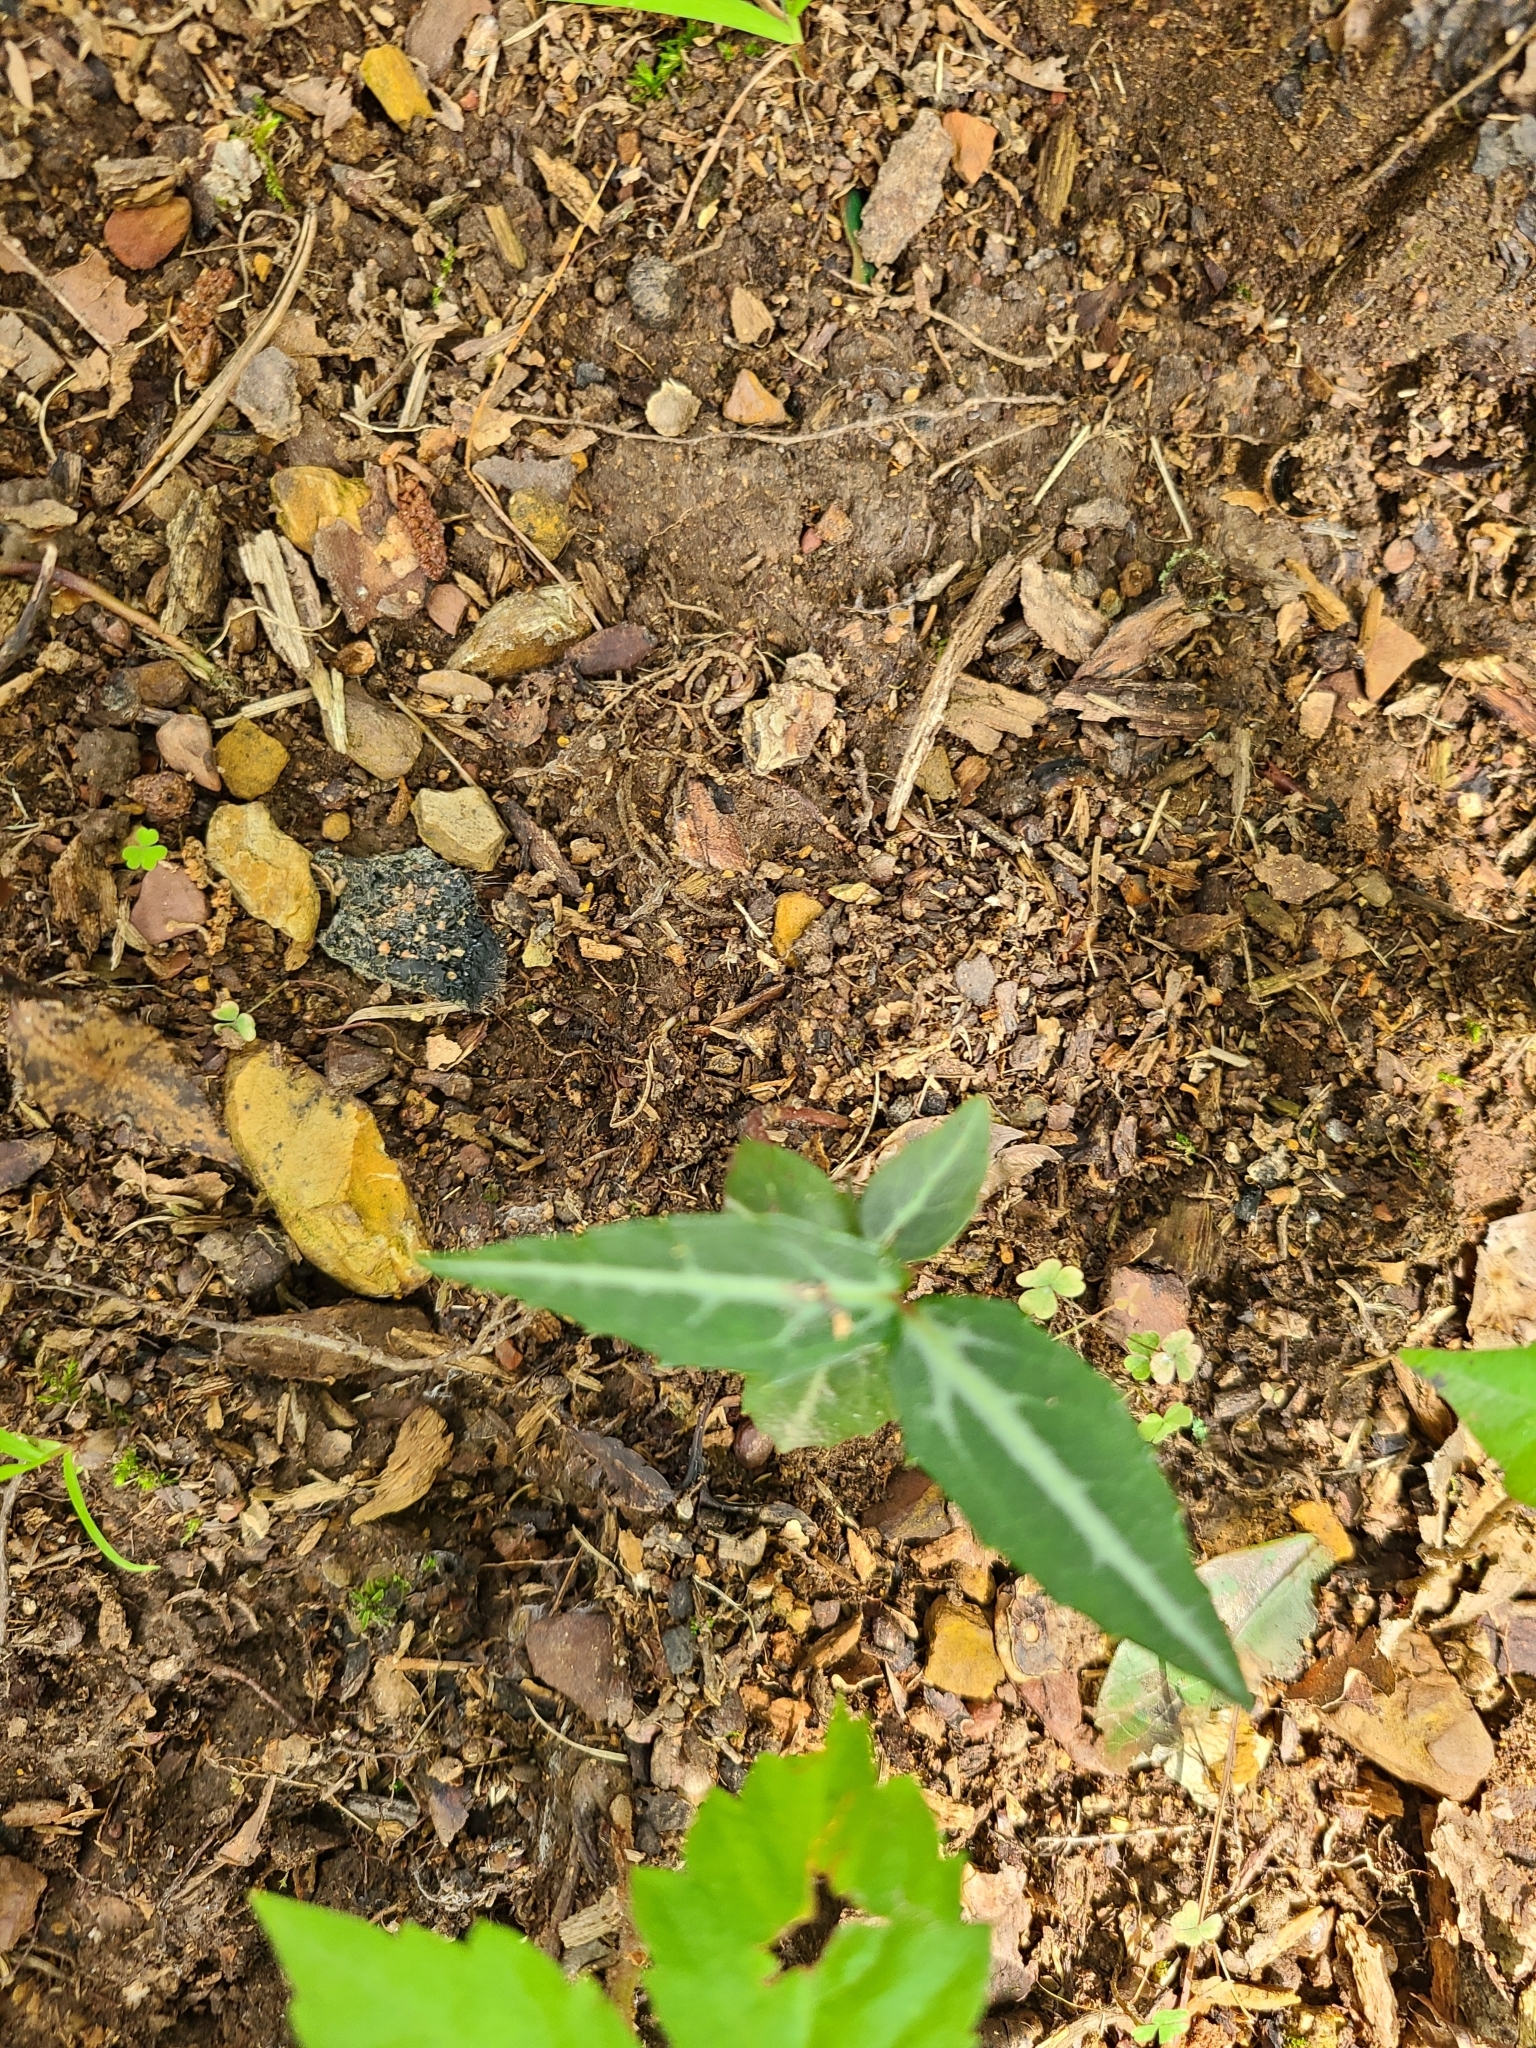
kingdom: Plantae
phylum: Tracheophyta
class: Magnoliopsida
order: Ericales
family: Ericaceae
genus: Chimaphila
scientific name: Chimaphila maculata
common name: Spotted pipsissewa
